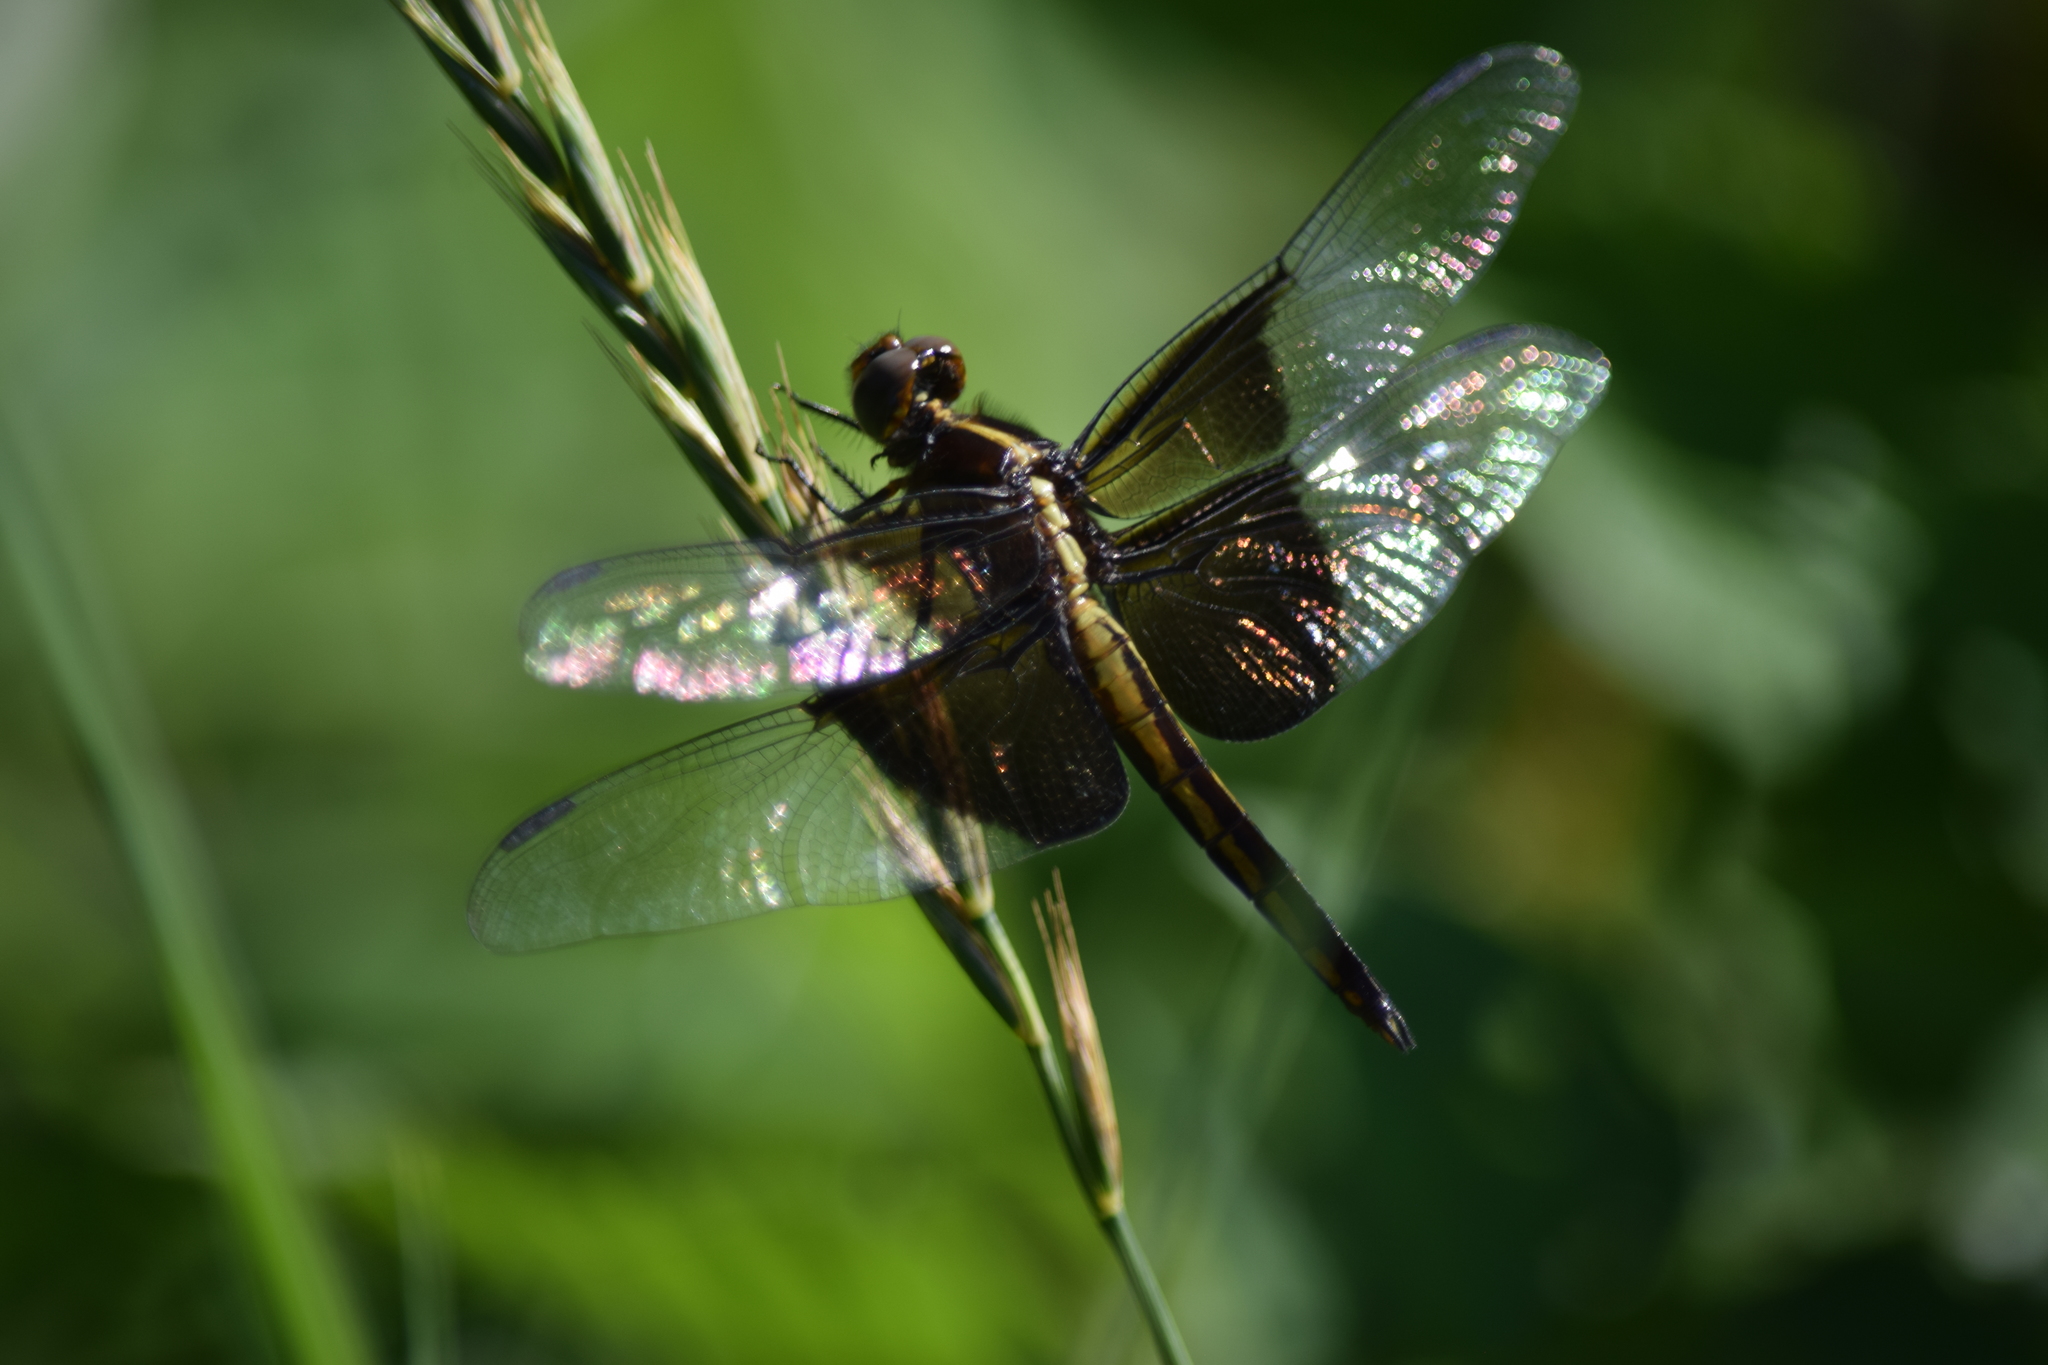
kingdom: Animalia
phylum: Arthropoda
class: Insecta
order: Odonata
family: Libellulidae
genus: Libellula
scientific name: Libellula luctuosa
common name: Widow skimmer
